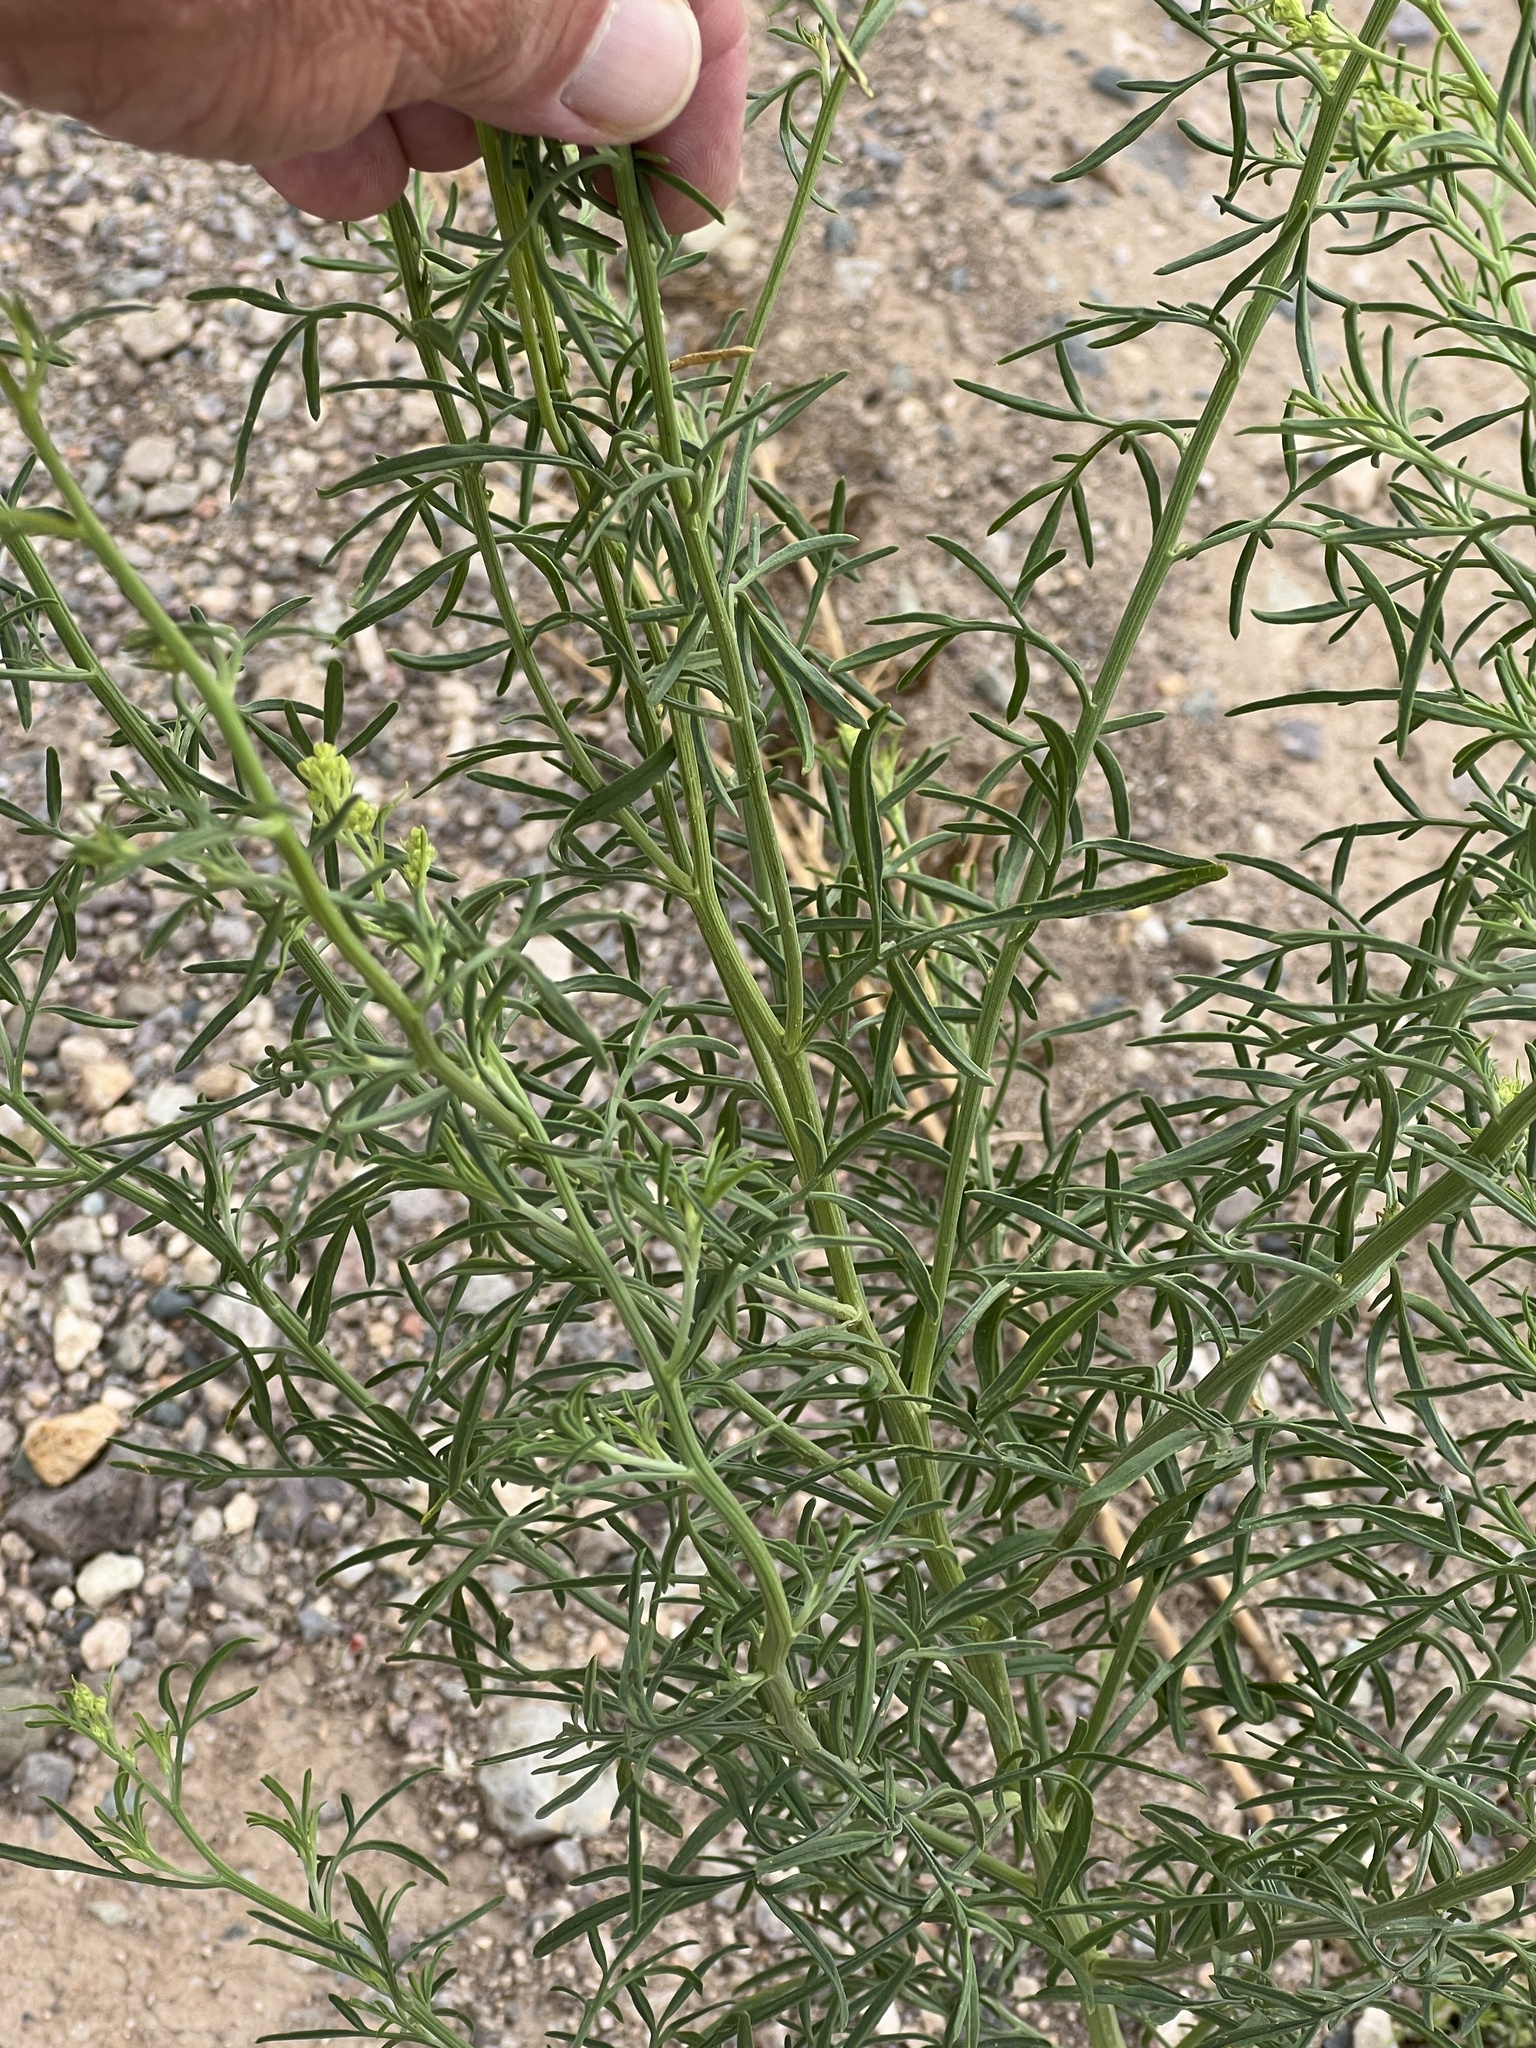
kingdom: Plantae
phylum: Tracheophyta
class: Magnoliopsida
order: Asterales
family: Asteraceae
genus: Hymenothrix
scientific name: Hymenothrix wislizeni
